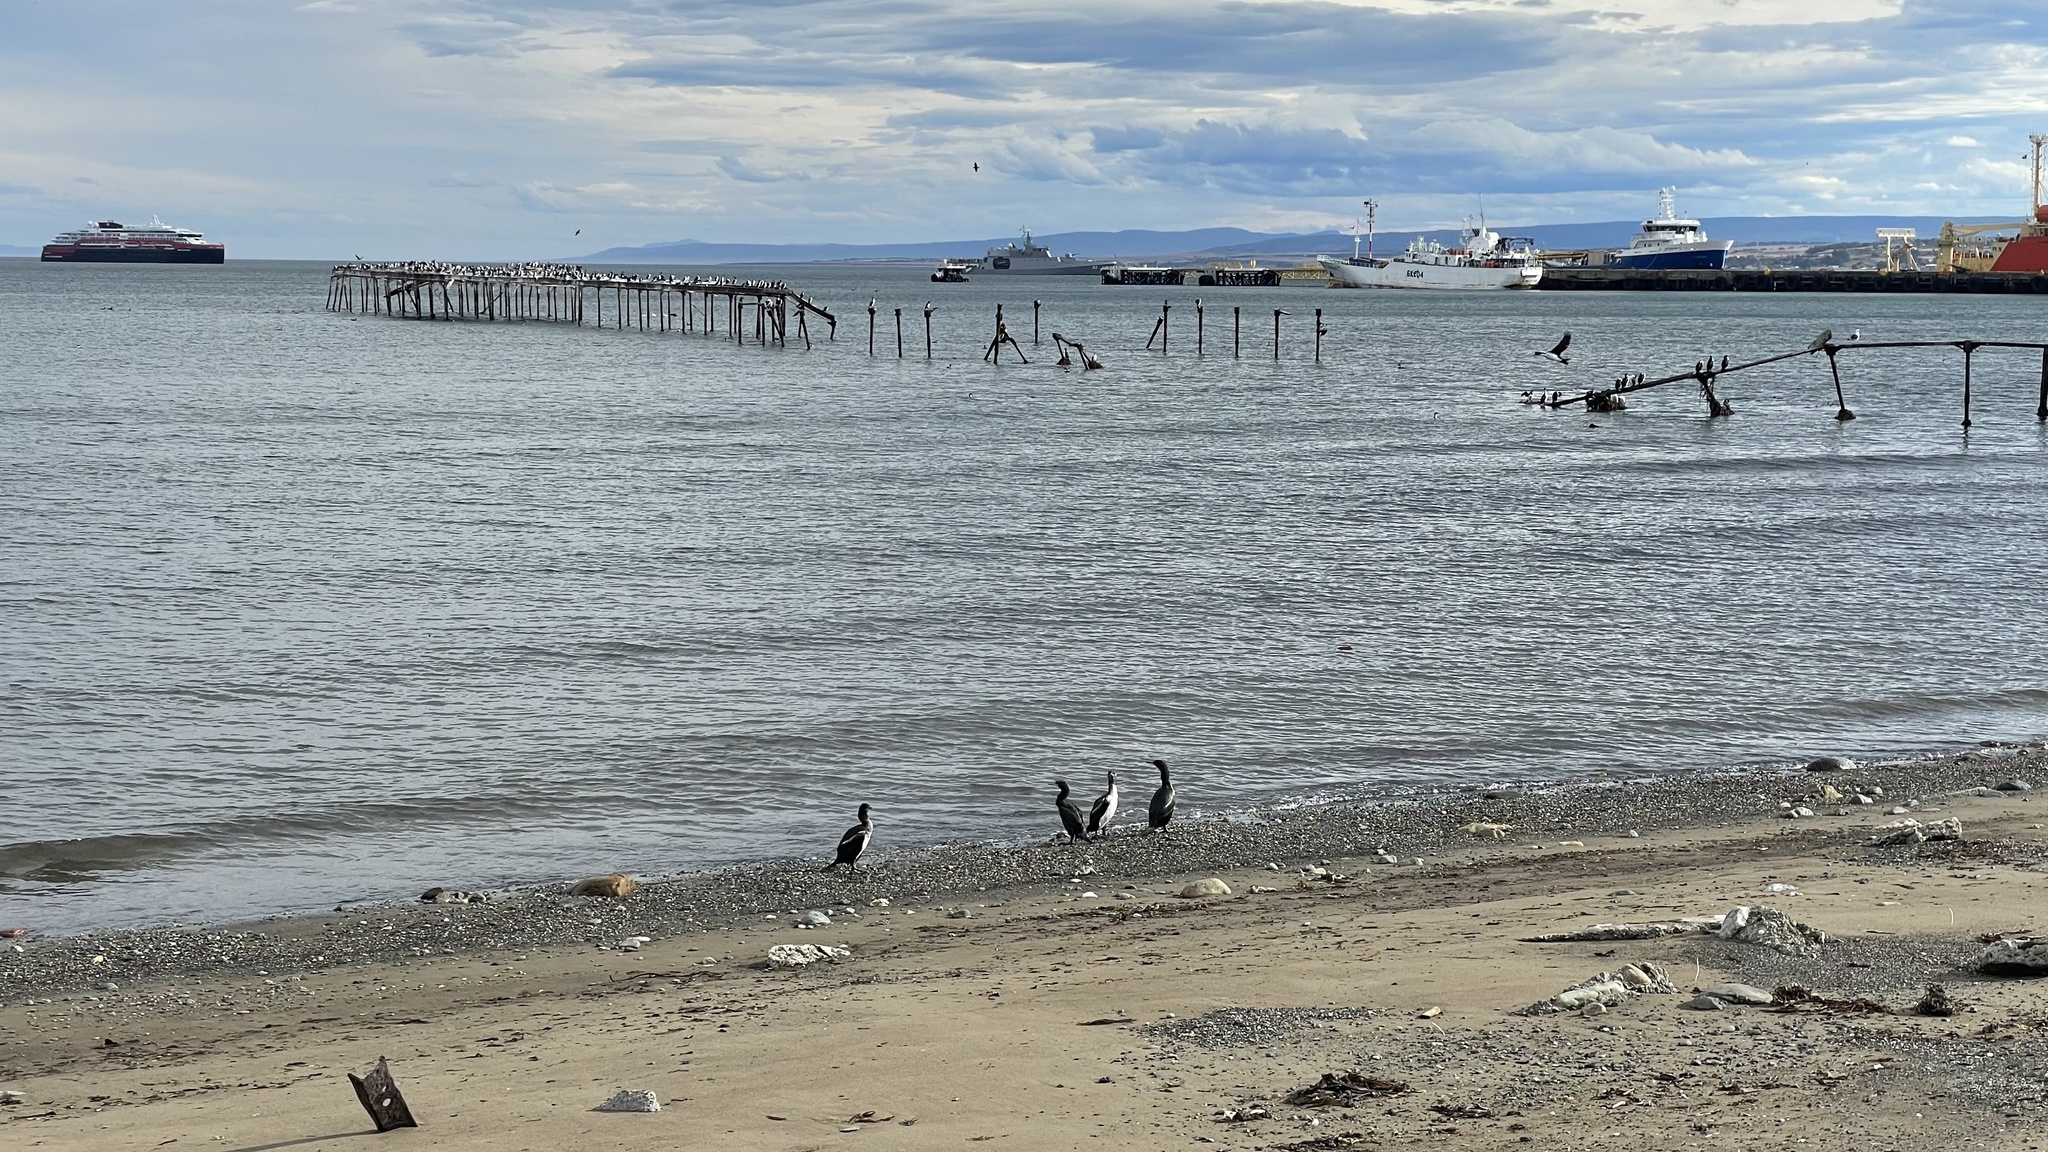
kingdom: Animalia
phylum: Chordata
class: Aves
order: Suliformes
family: Phalacrocoracidae
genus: Leucocarbo
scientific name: Leucocarbo atriceps
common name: Imperial shag
